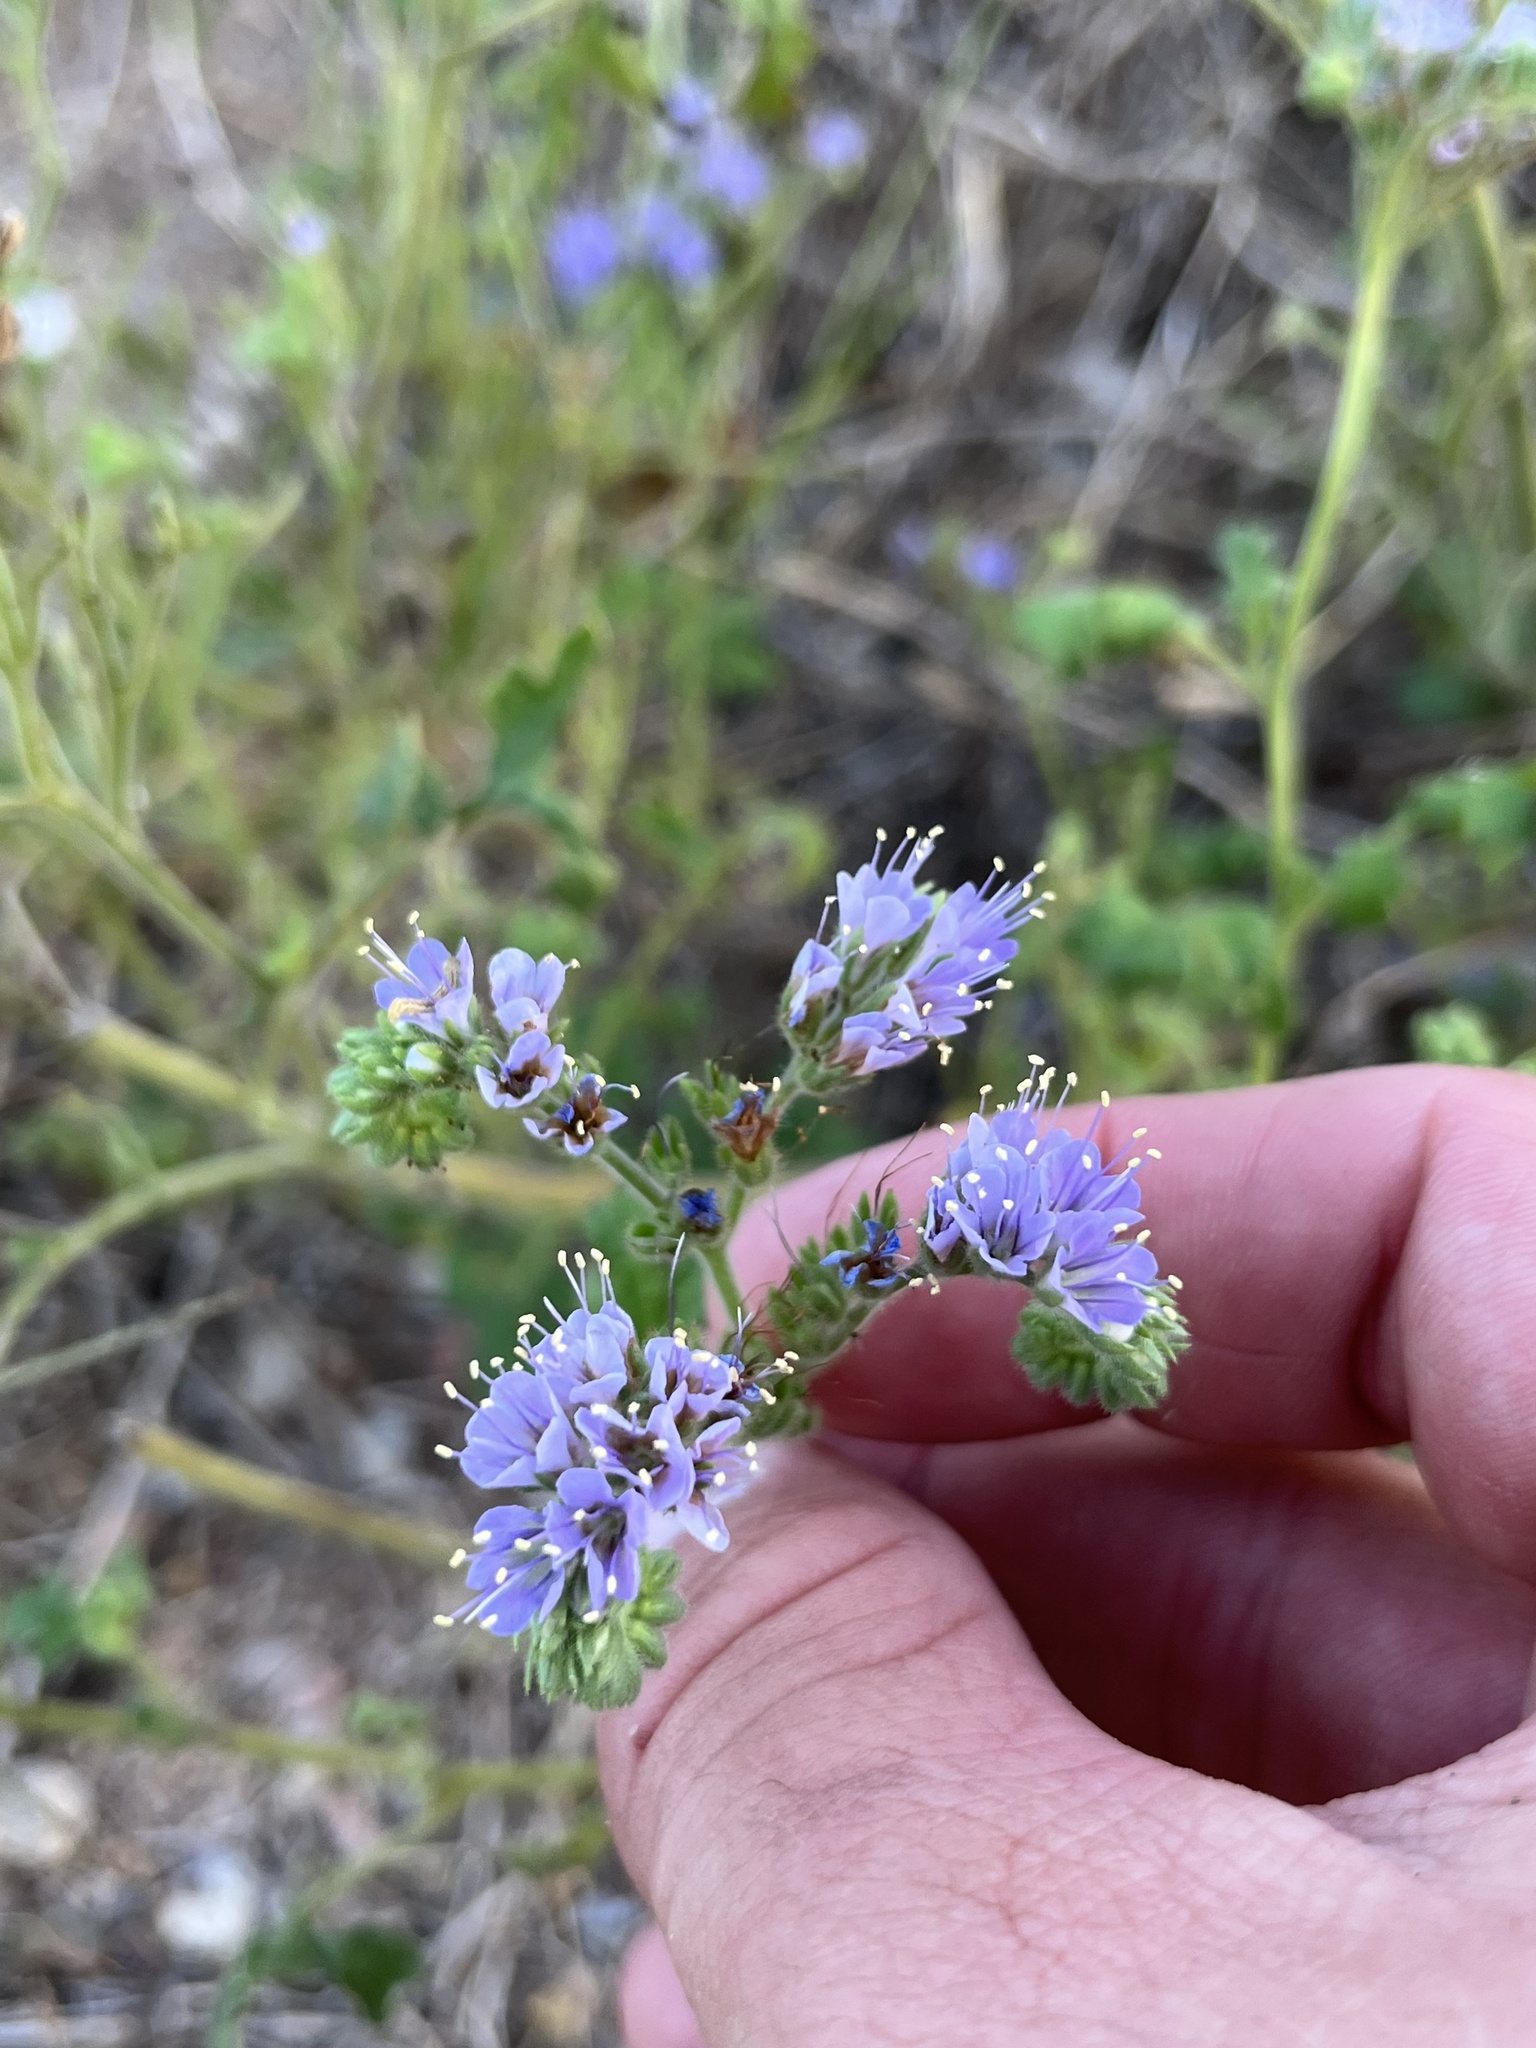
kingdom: Plantae
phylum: Tracheophyta
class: Magnoliopsida
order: Boraginales
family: Hydrophyllaceae
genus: Phacelia
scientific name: Phacelia congesta
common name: Blue curls
